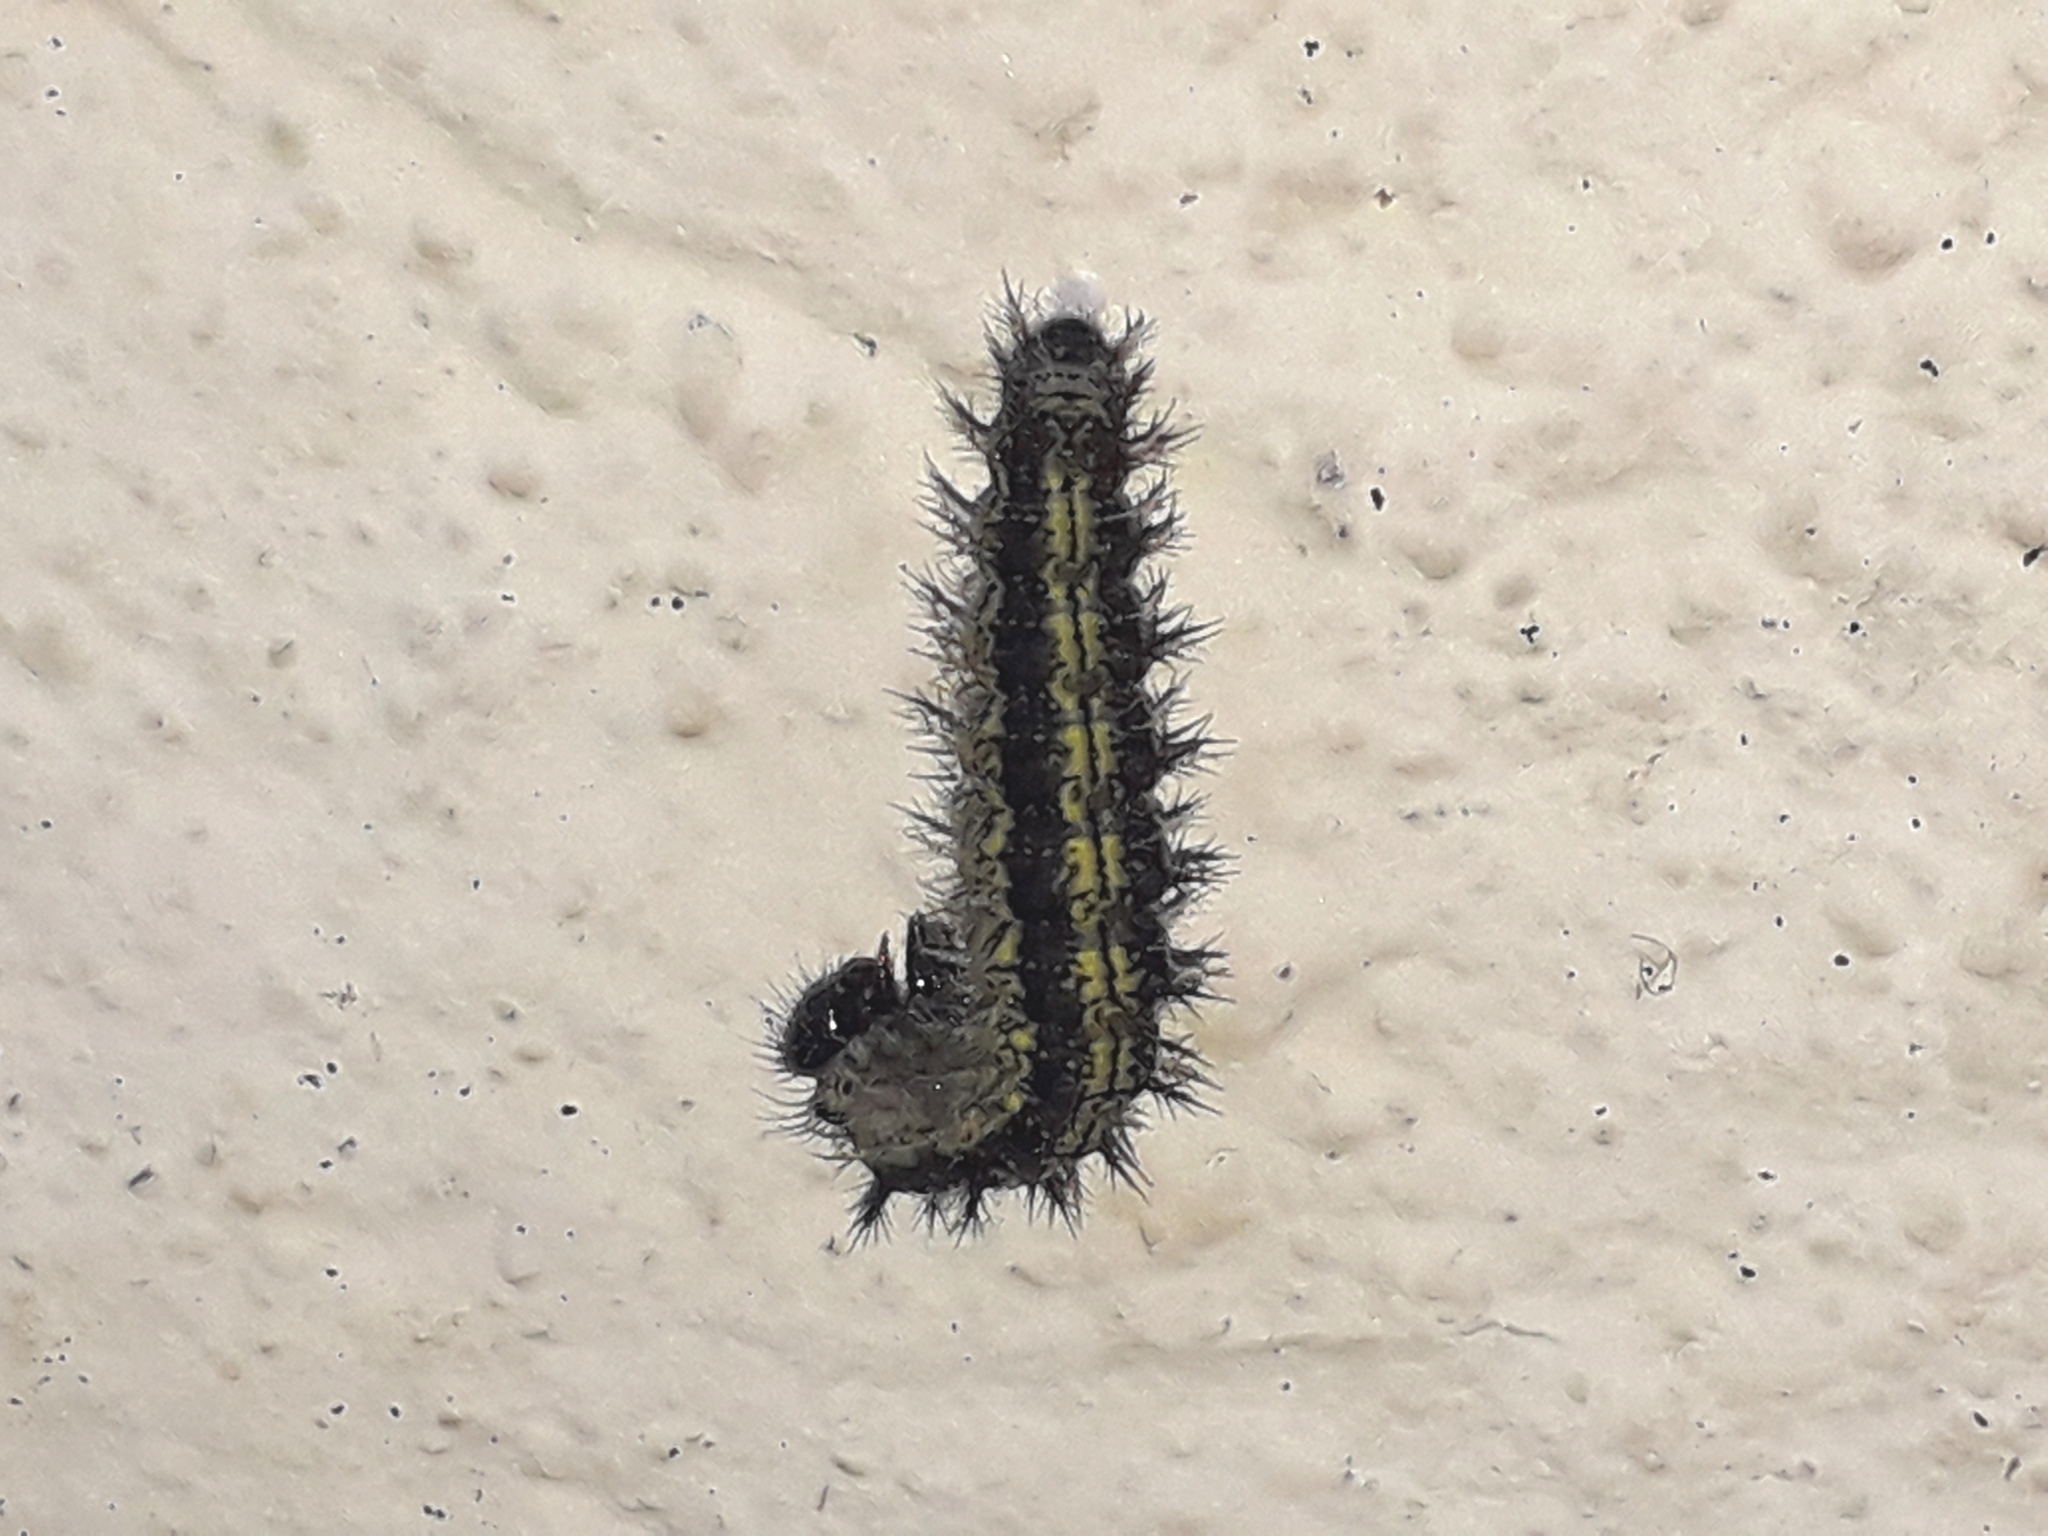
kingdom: Animalia
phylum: Arthropoda
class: Insecta
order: Lepidoptera
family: Nymphalidae
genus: Aglais
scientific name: Aglais urticae
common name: Small tortoiseshell
